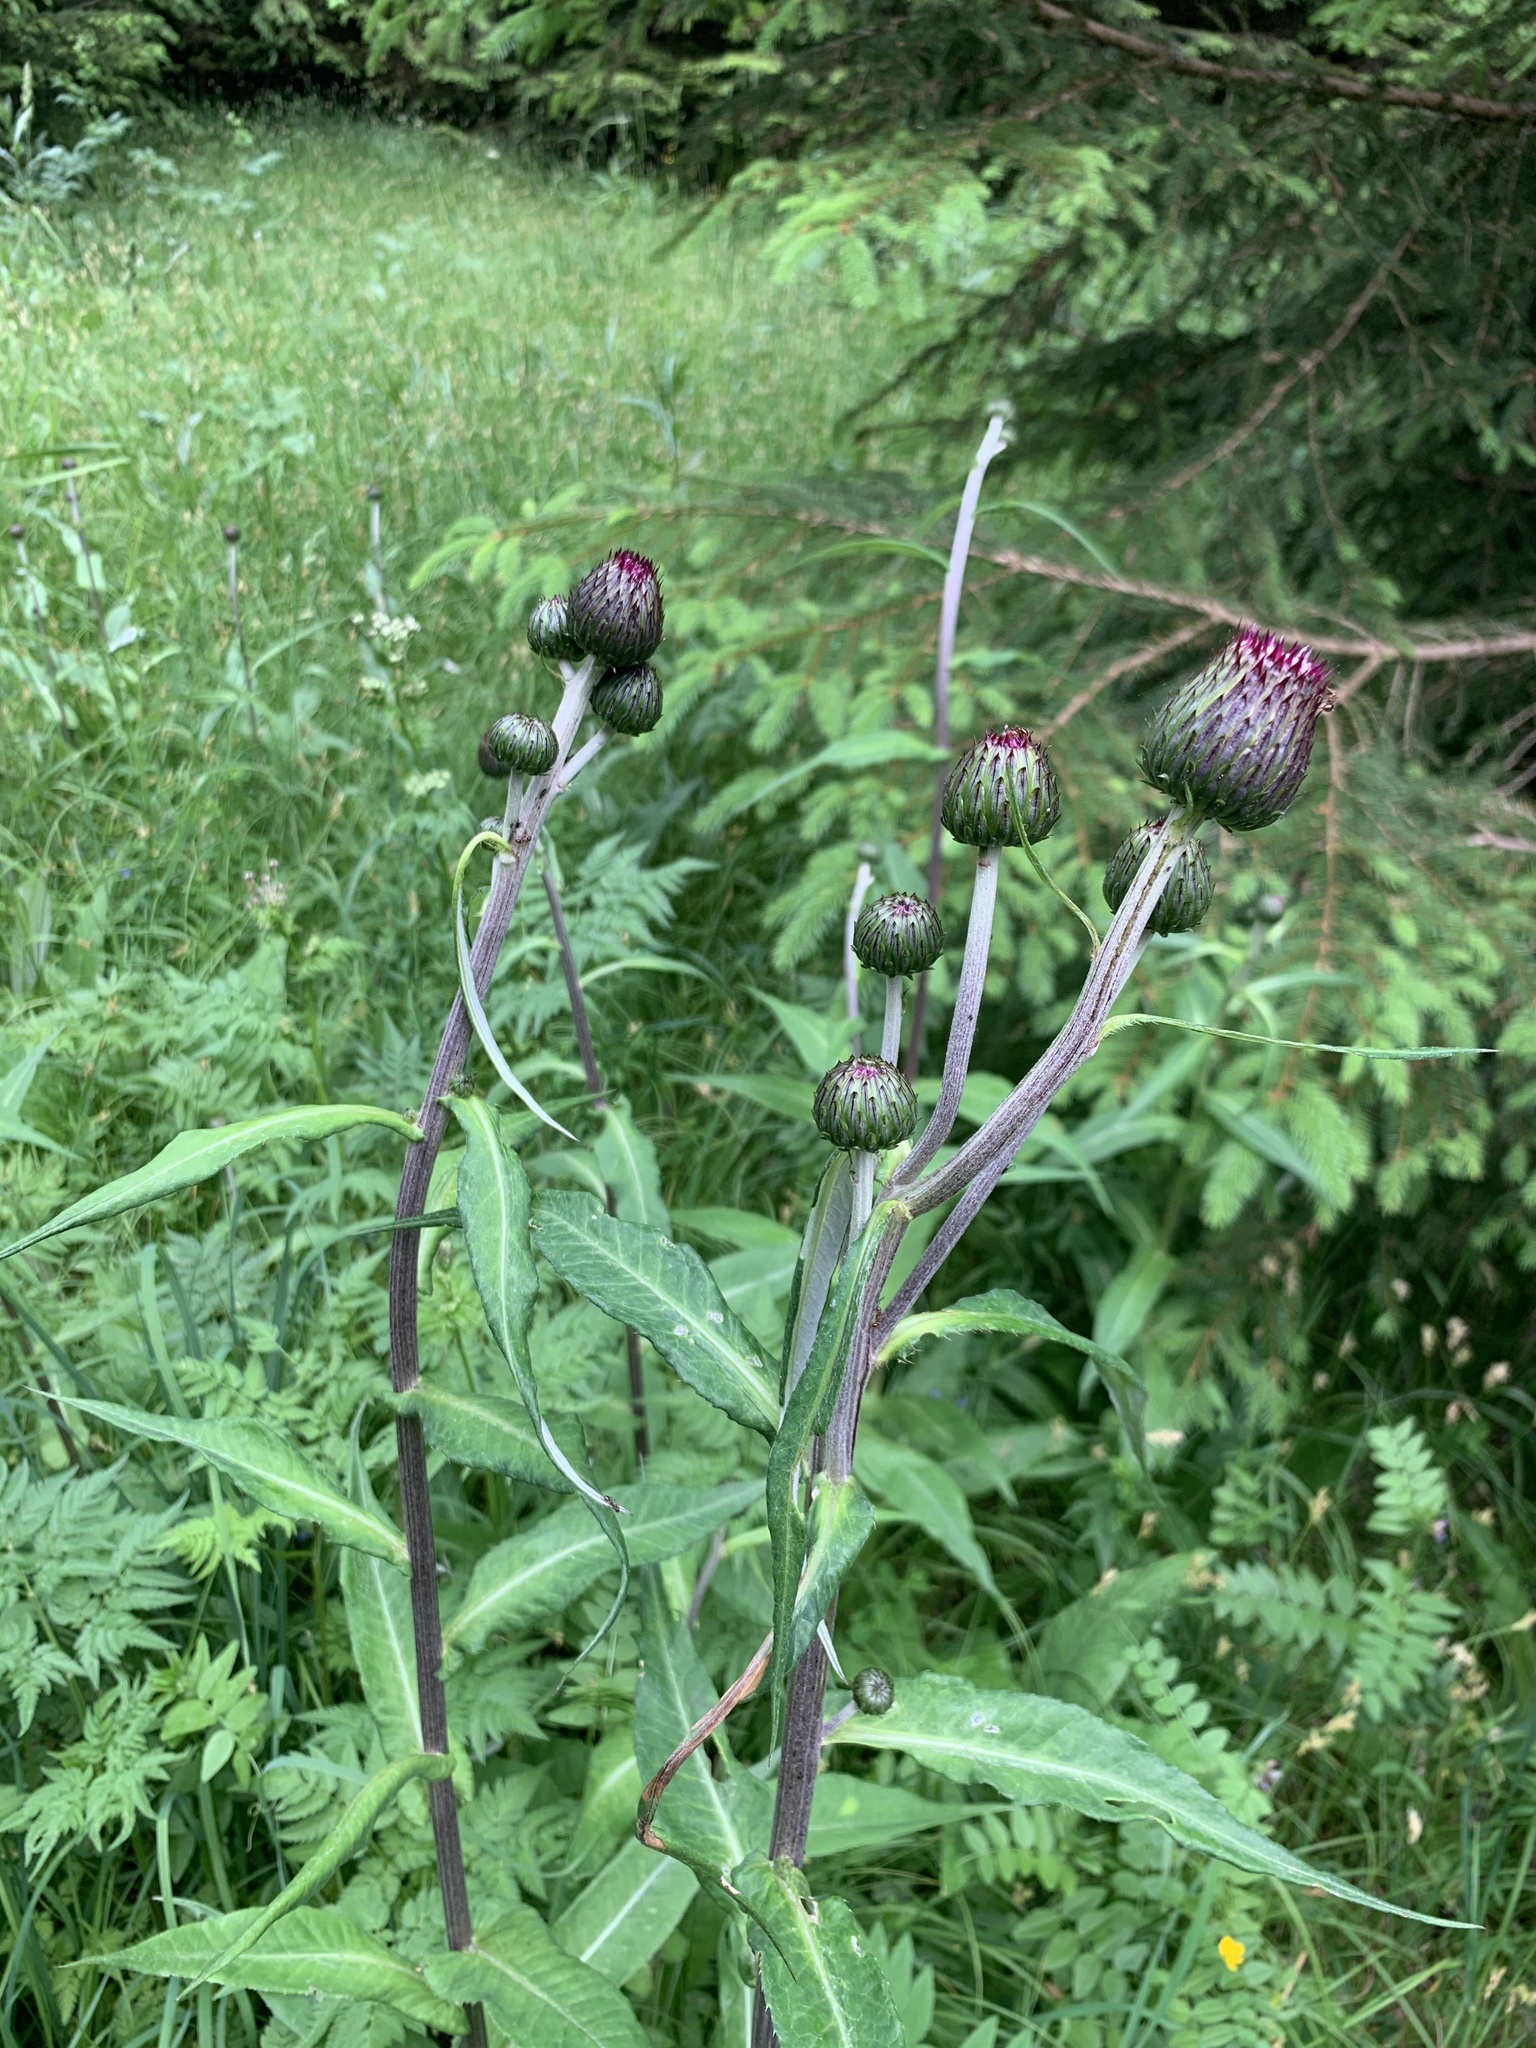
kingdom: Plantae
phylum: Tracheophyta
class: Magnoliopsida
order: Asterales
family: Asteraceae
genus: Cirsium
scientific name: Cirsium heterophyllum
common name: Melancholy thistle
